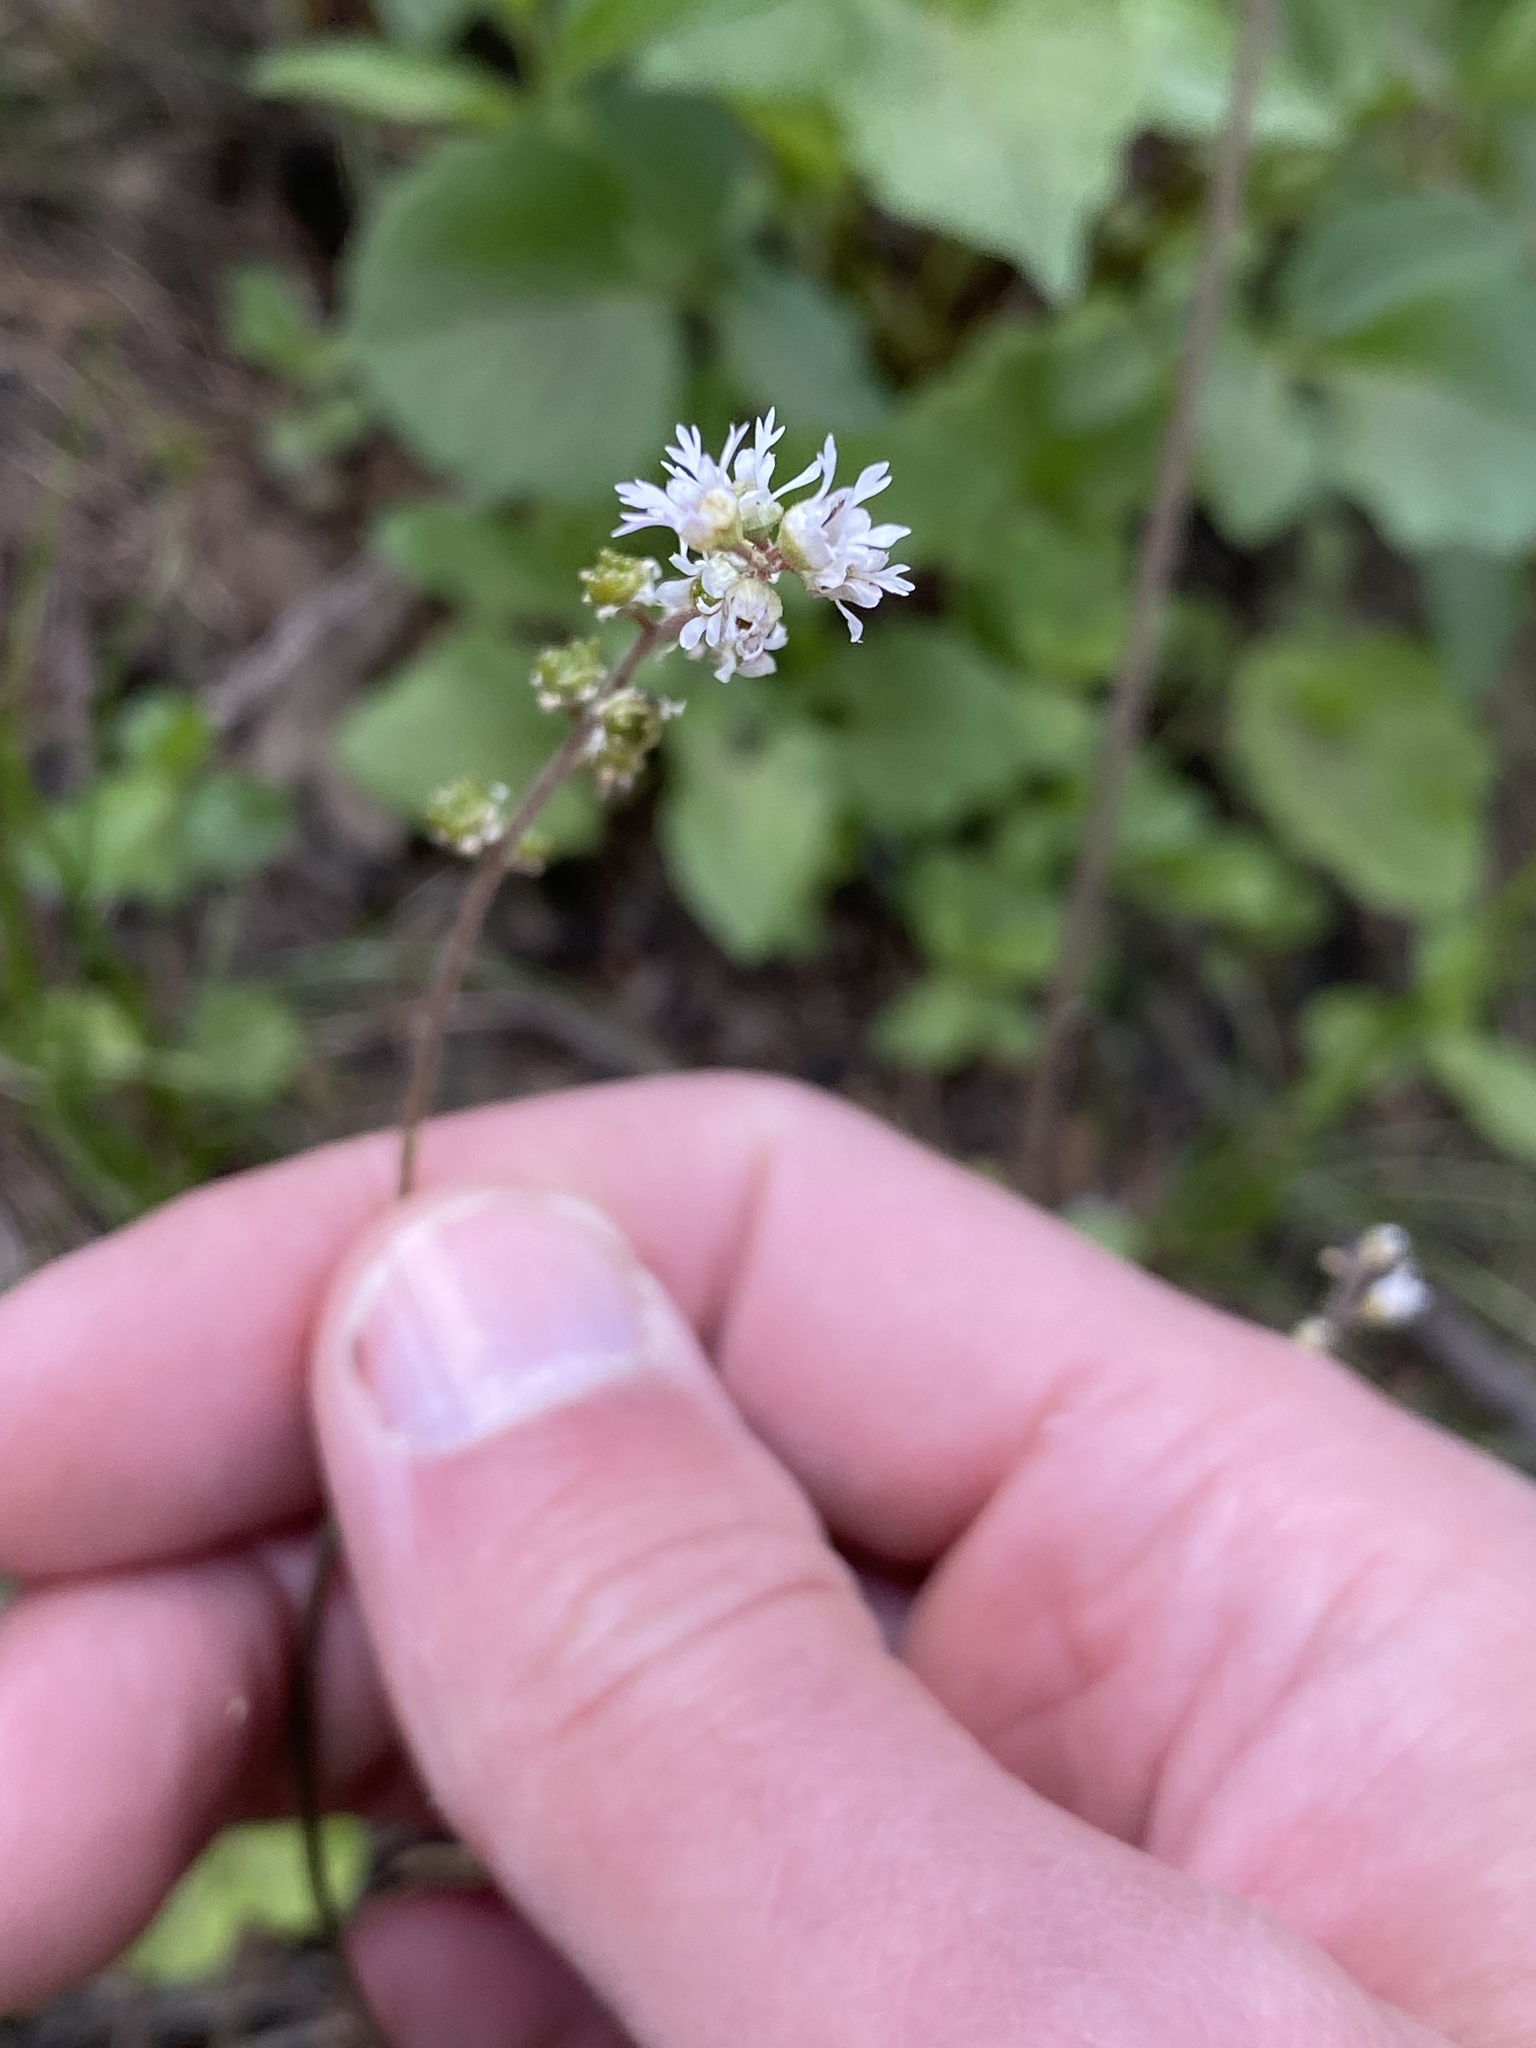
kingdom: Plantae
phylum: Tracheophyta
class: Magnoliopsida
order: Saxifragales
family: Saxifragaceae
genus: Ozomelis
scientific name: Ozomelis trifida
